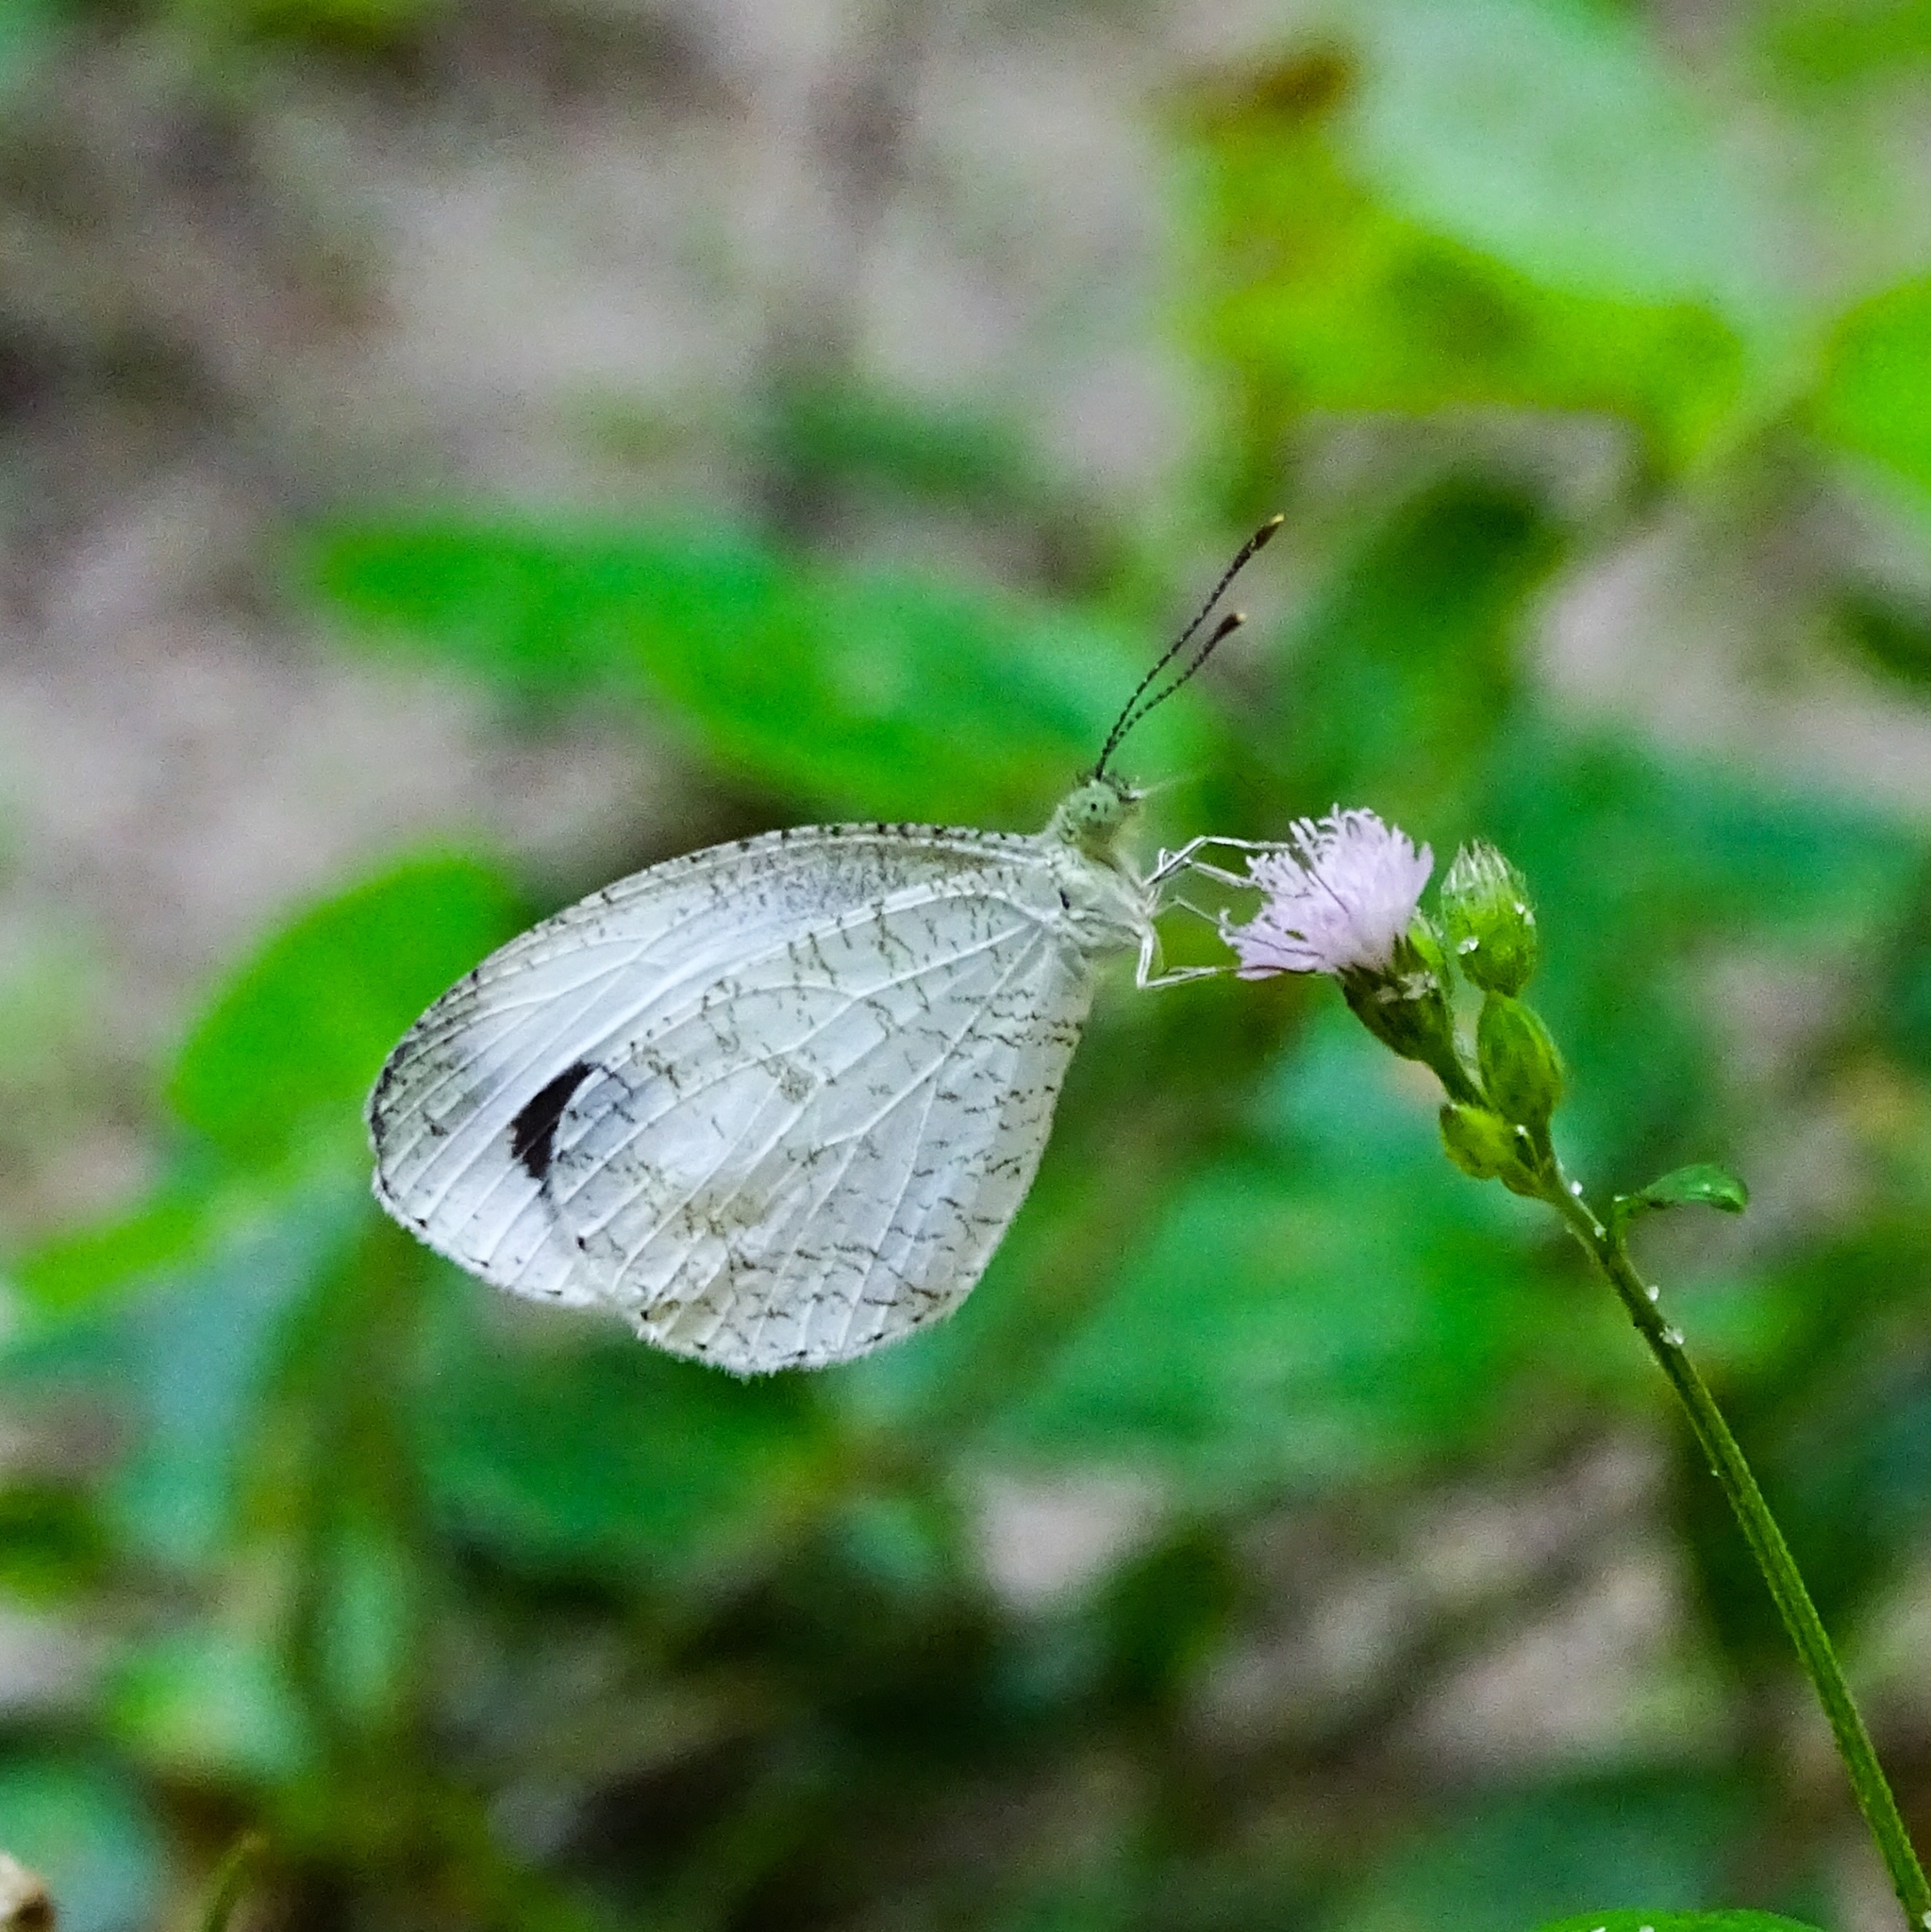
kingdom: Animalia
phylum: Arthropoda
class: Insecta
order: Lepidoptera
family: Pieridae
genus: Leptosia
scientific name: Leptosia nina
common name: Psyche
